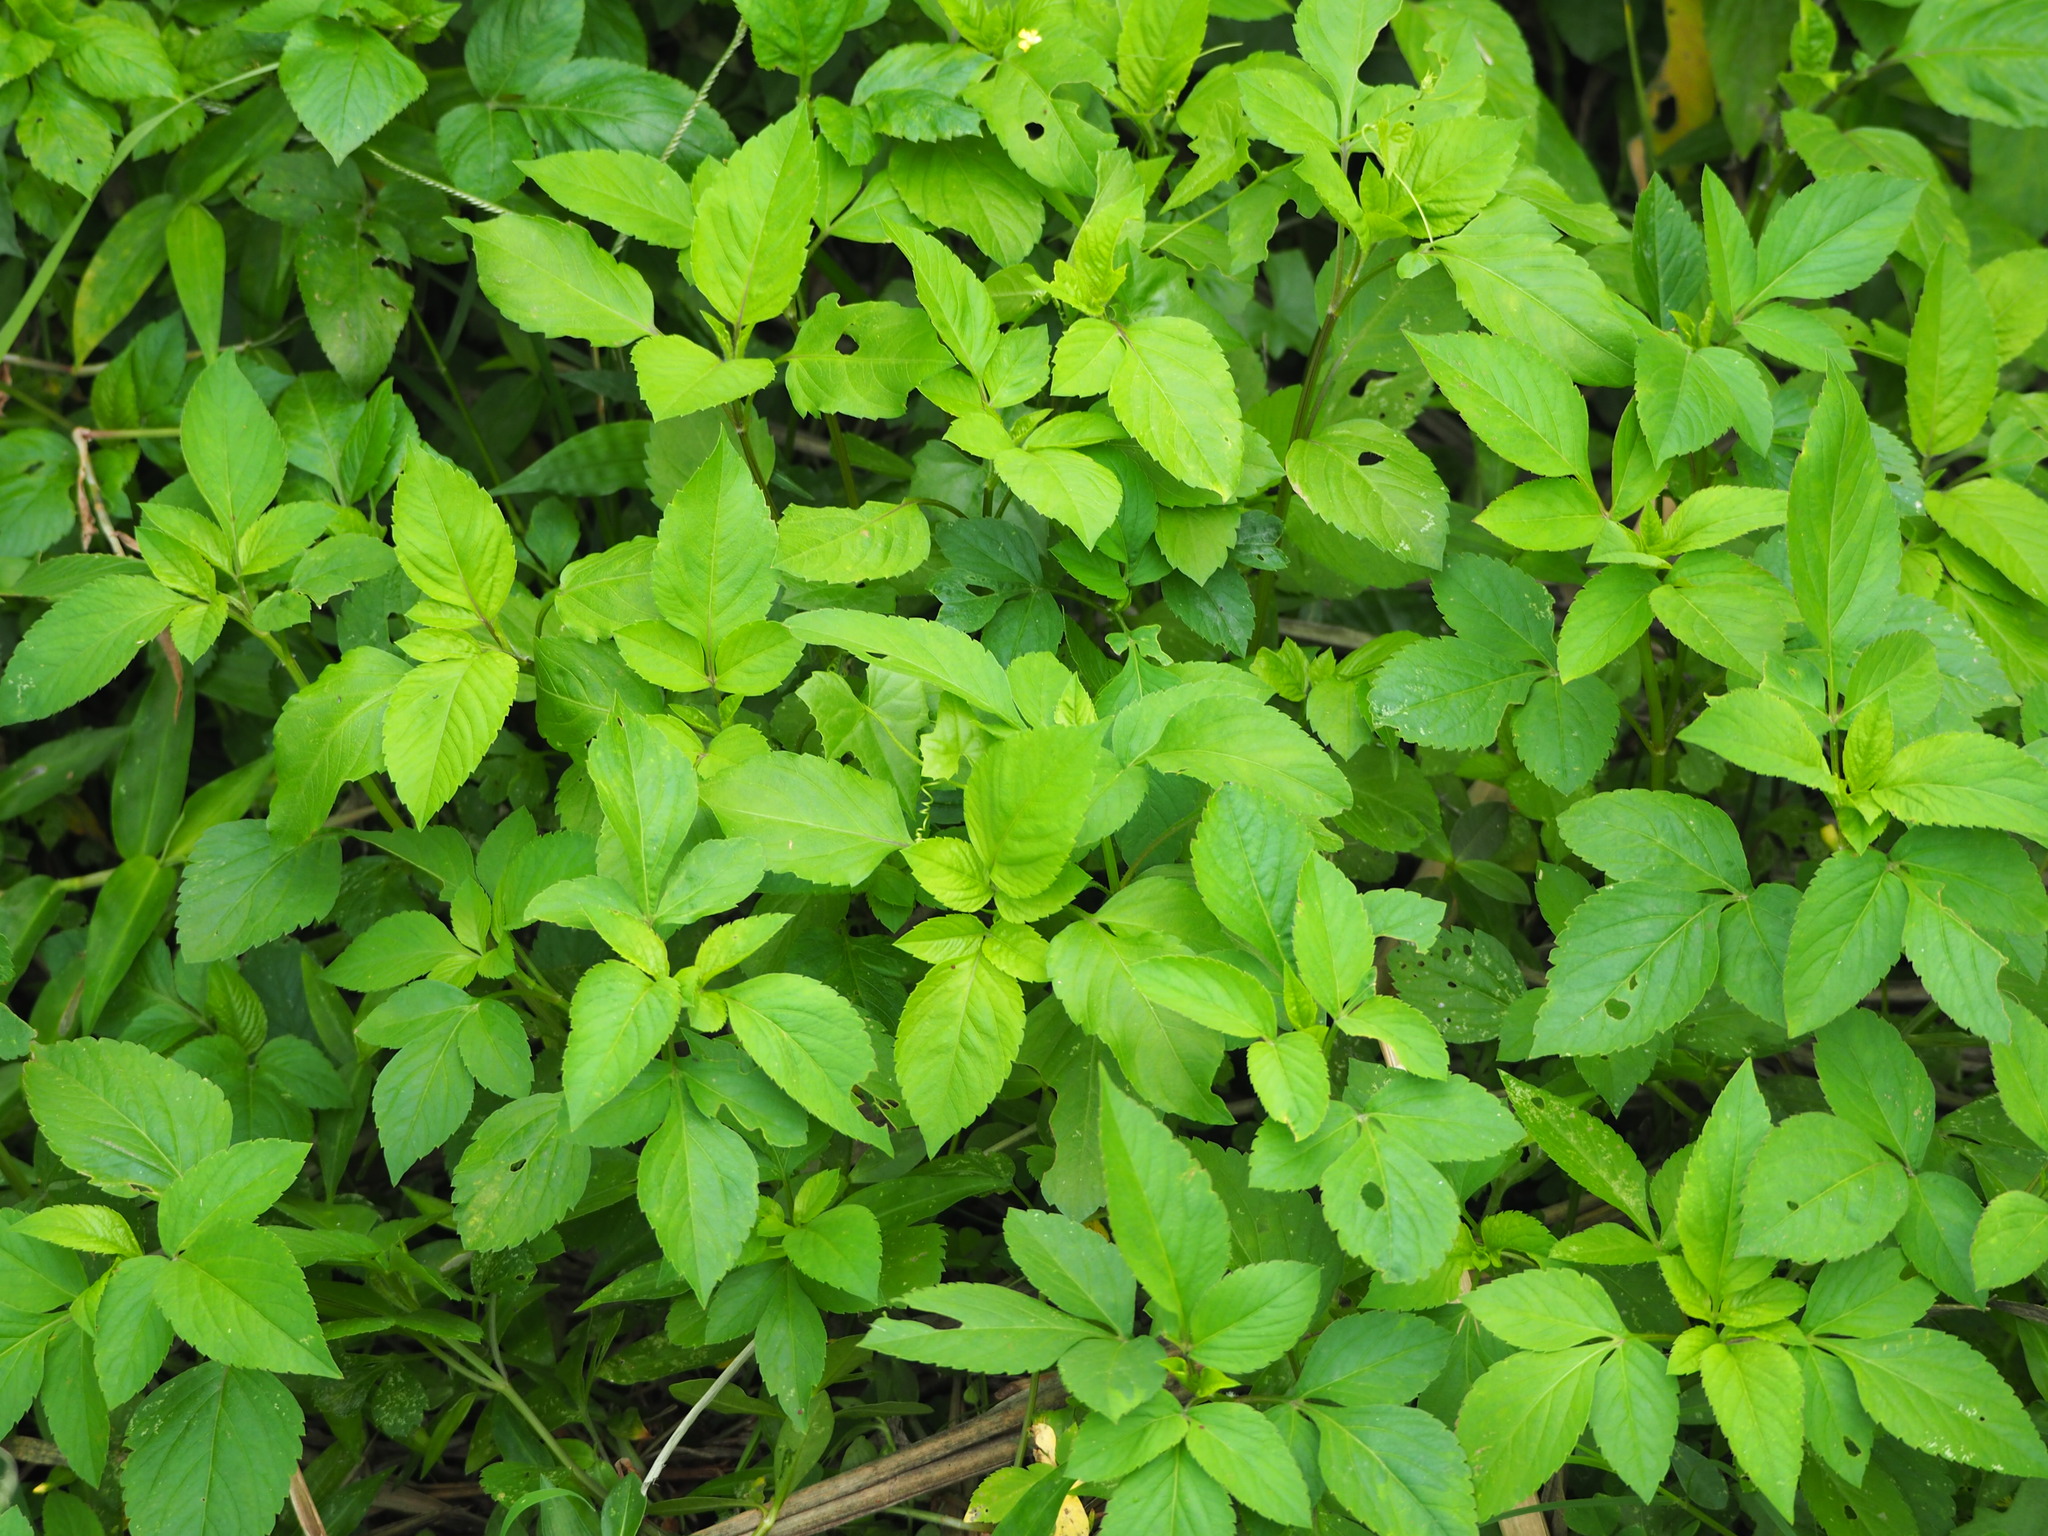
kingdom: Plantae
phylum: Tracheophyta
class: Magnoliopsida
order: Asterales
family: Asteraceae
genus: Bidens
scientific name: Bidens alba
